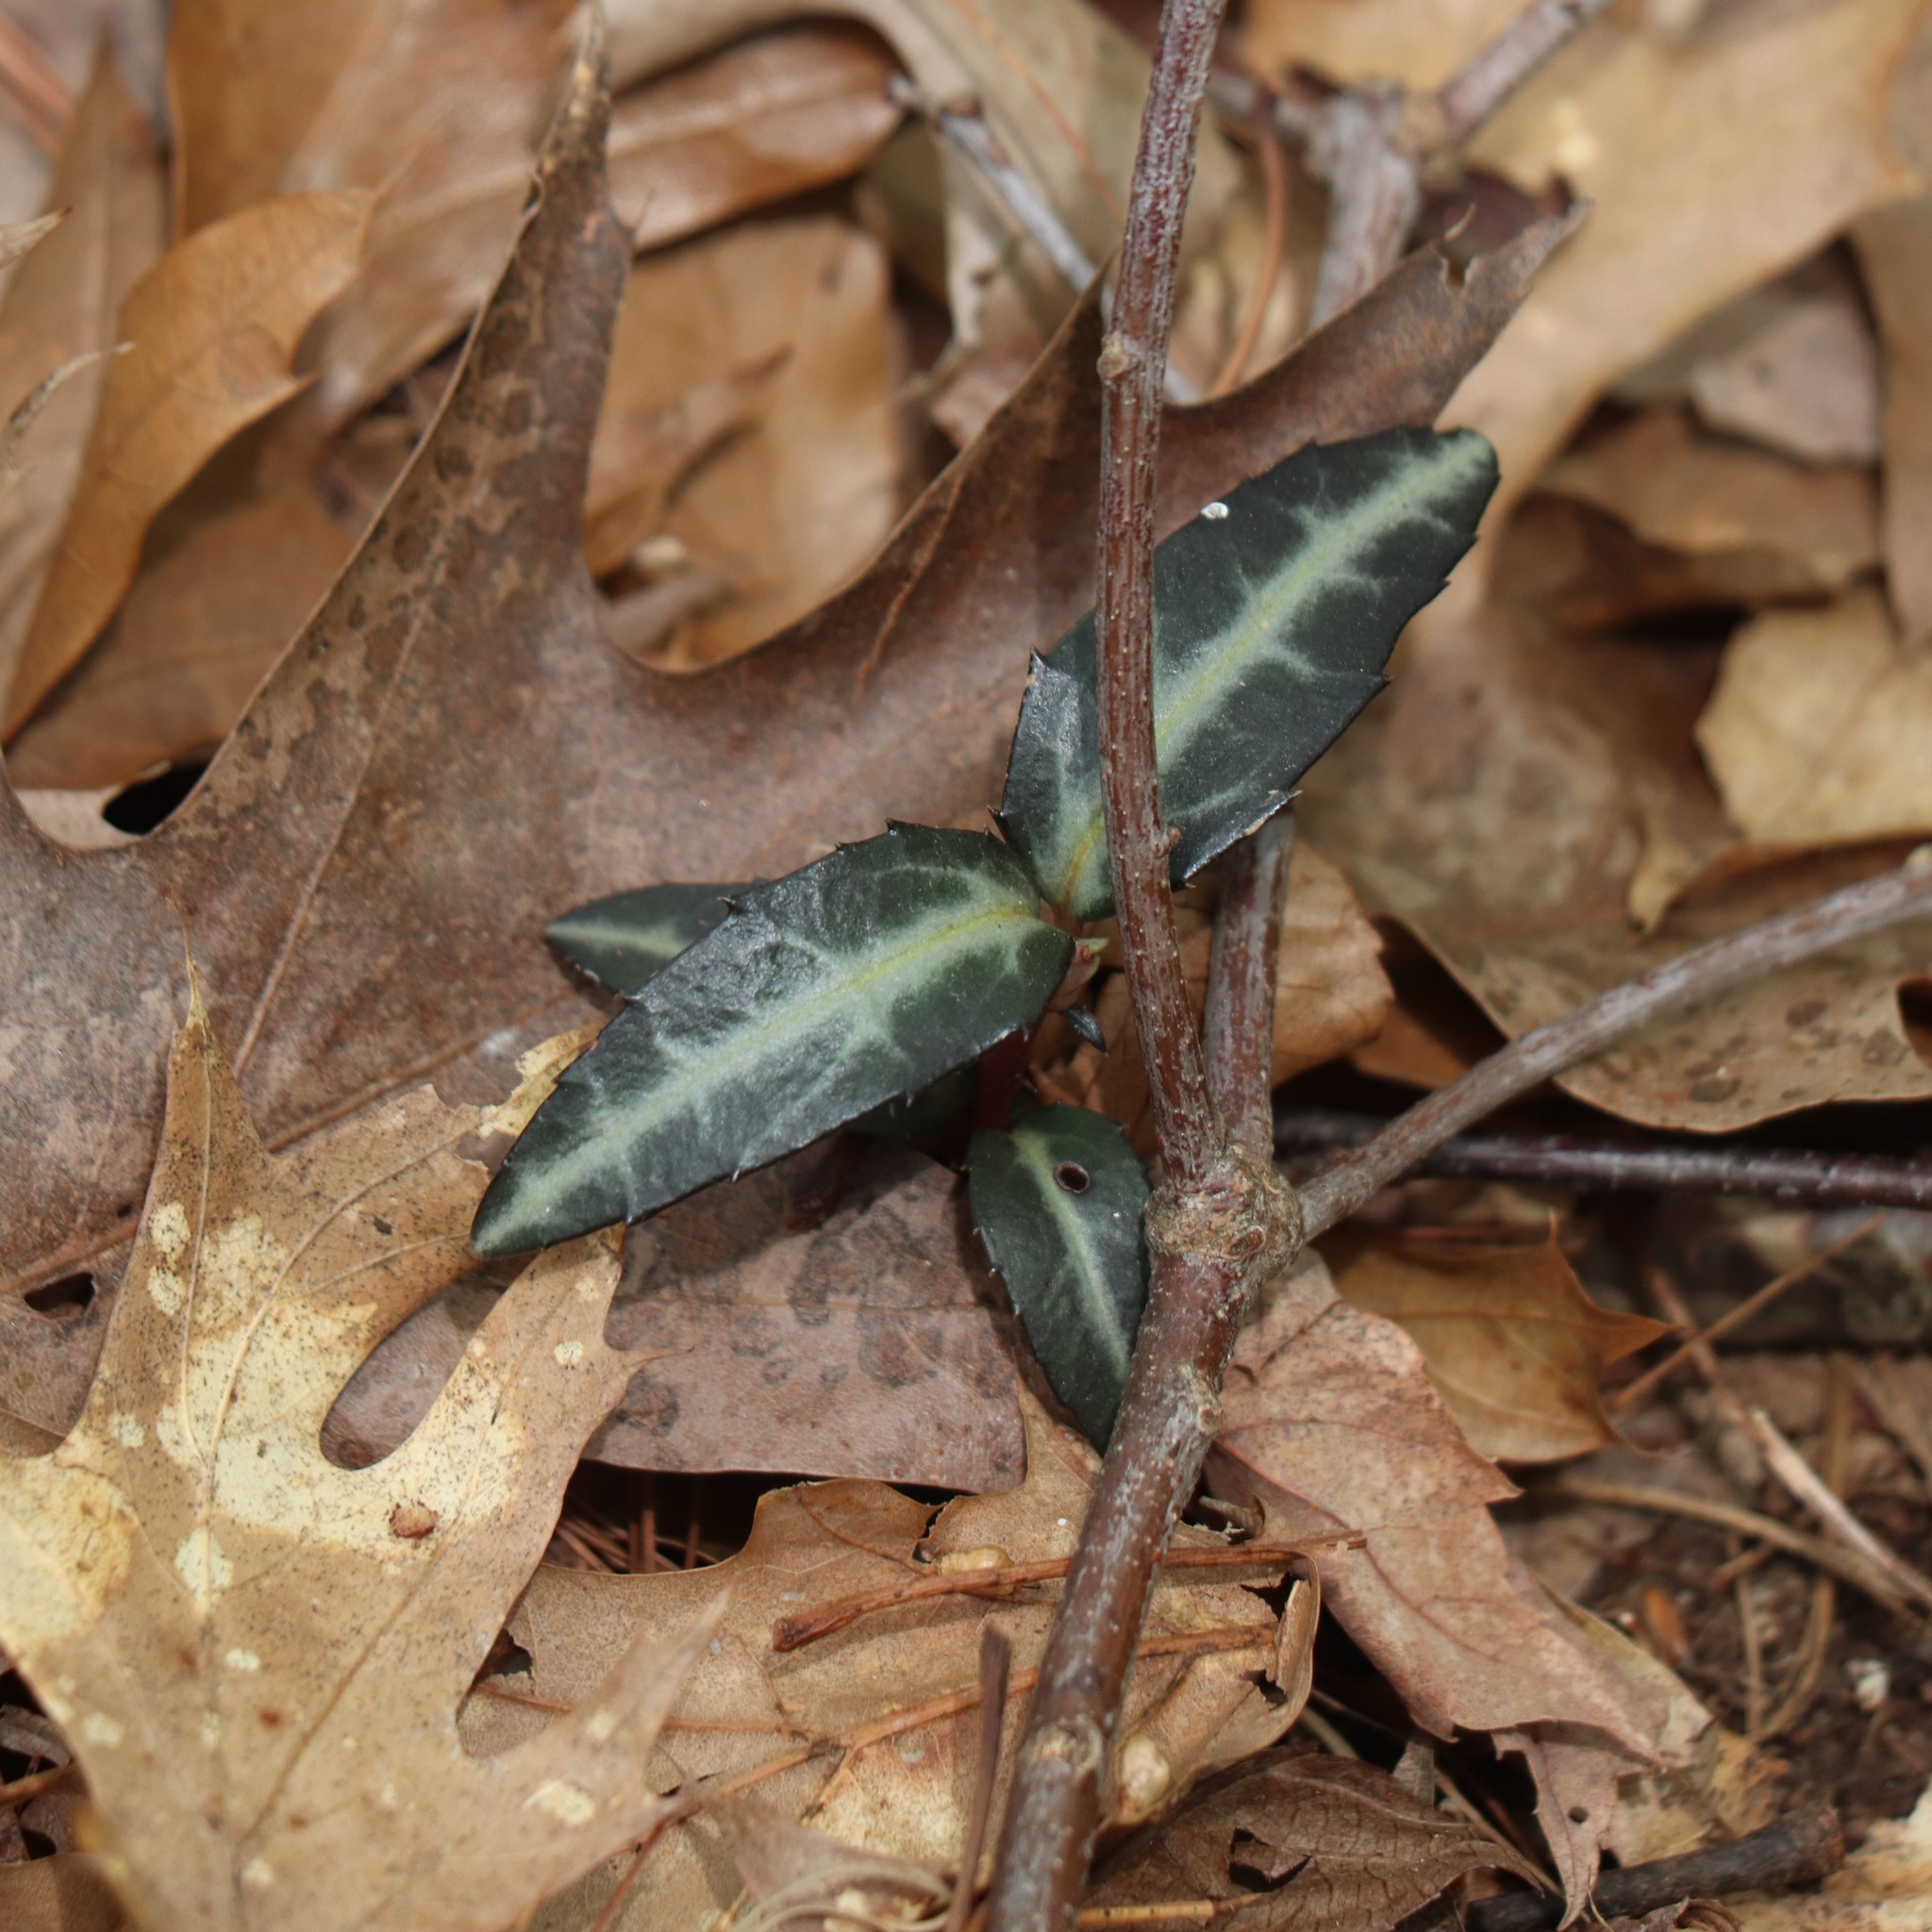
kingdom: Plantae
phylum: Tracheophyta
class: Magnoliopsida
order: Ericales
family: Ericaceae
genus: Chimaphila
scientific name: Chimaphila maculata
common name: Spotted pipsissewa
